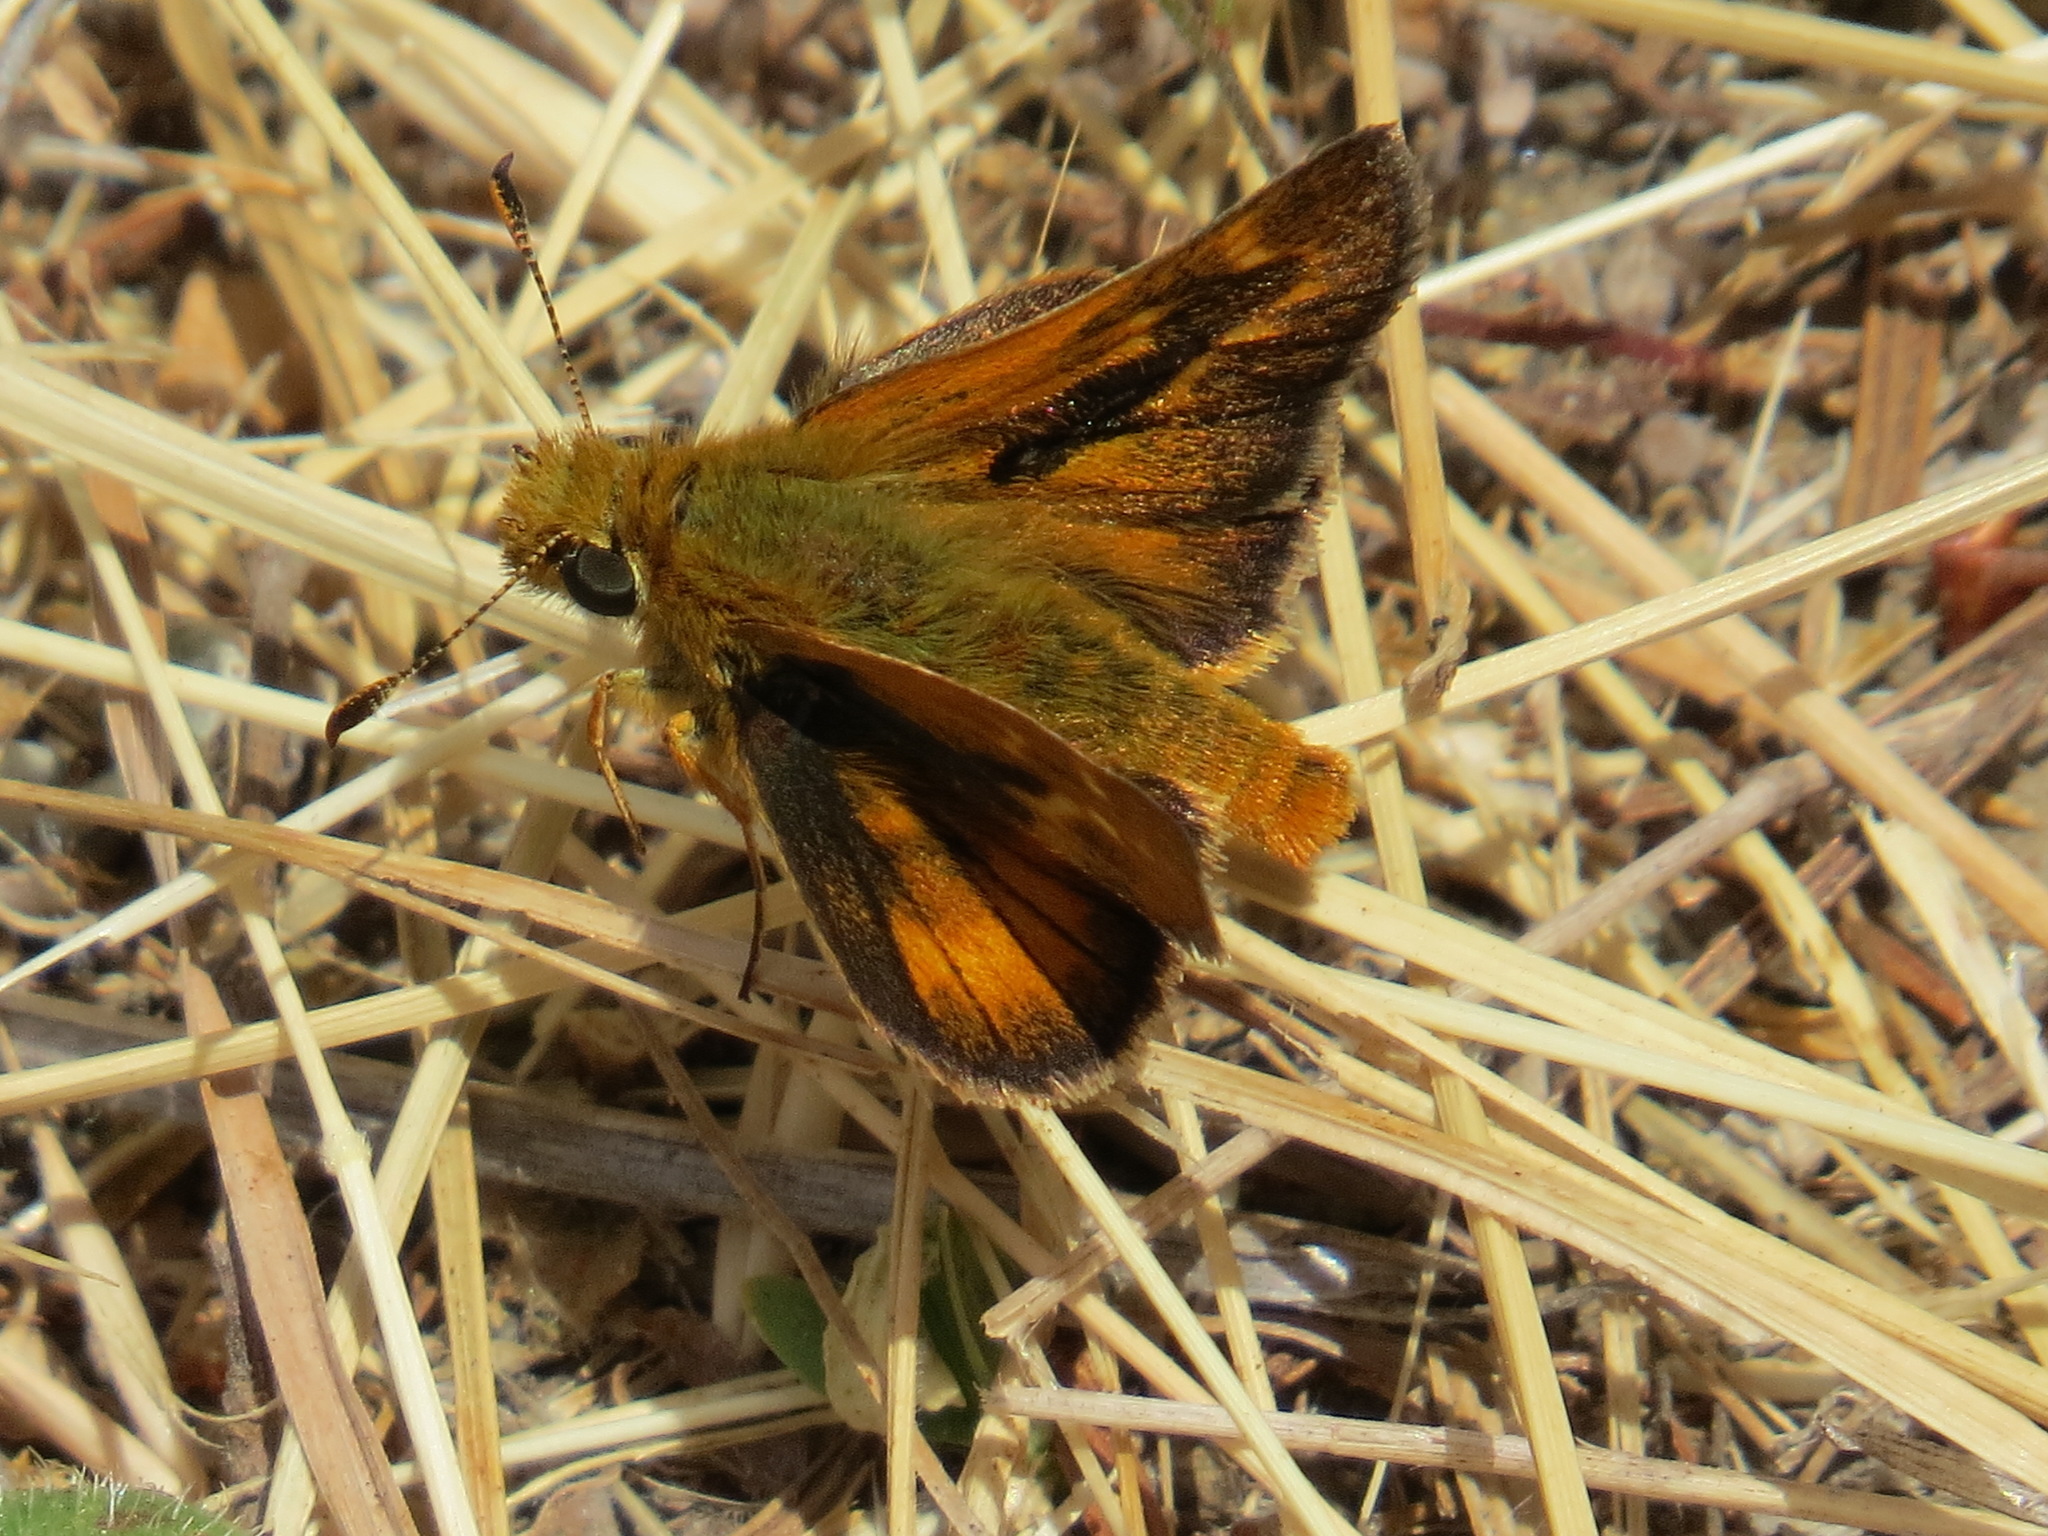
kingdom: Animalia
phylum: Arthropoda
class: Insecta
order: Lepidoptera
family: Hesperiidae
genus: Ochlodes
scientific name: Ochlodes agricola
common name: Rural skipper
